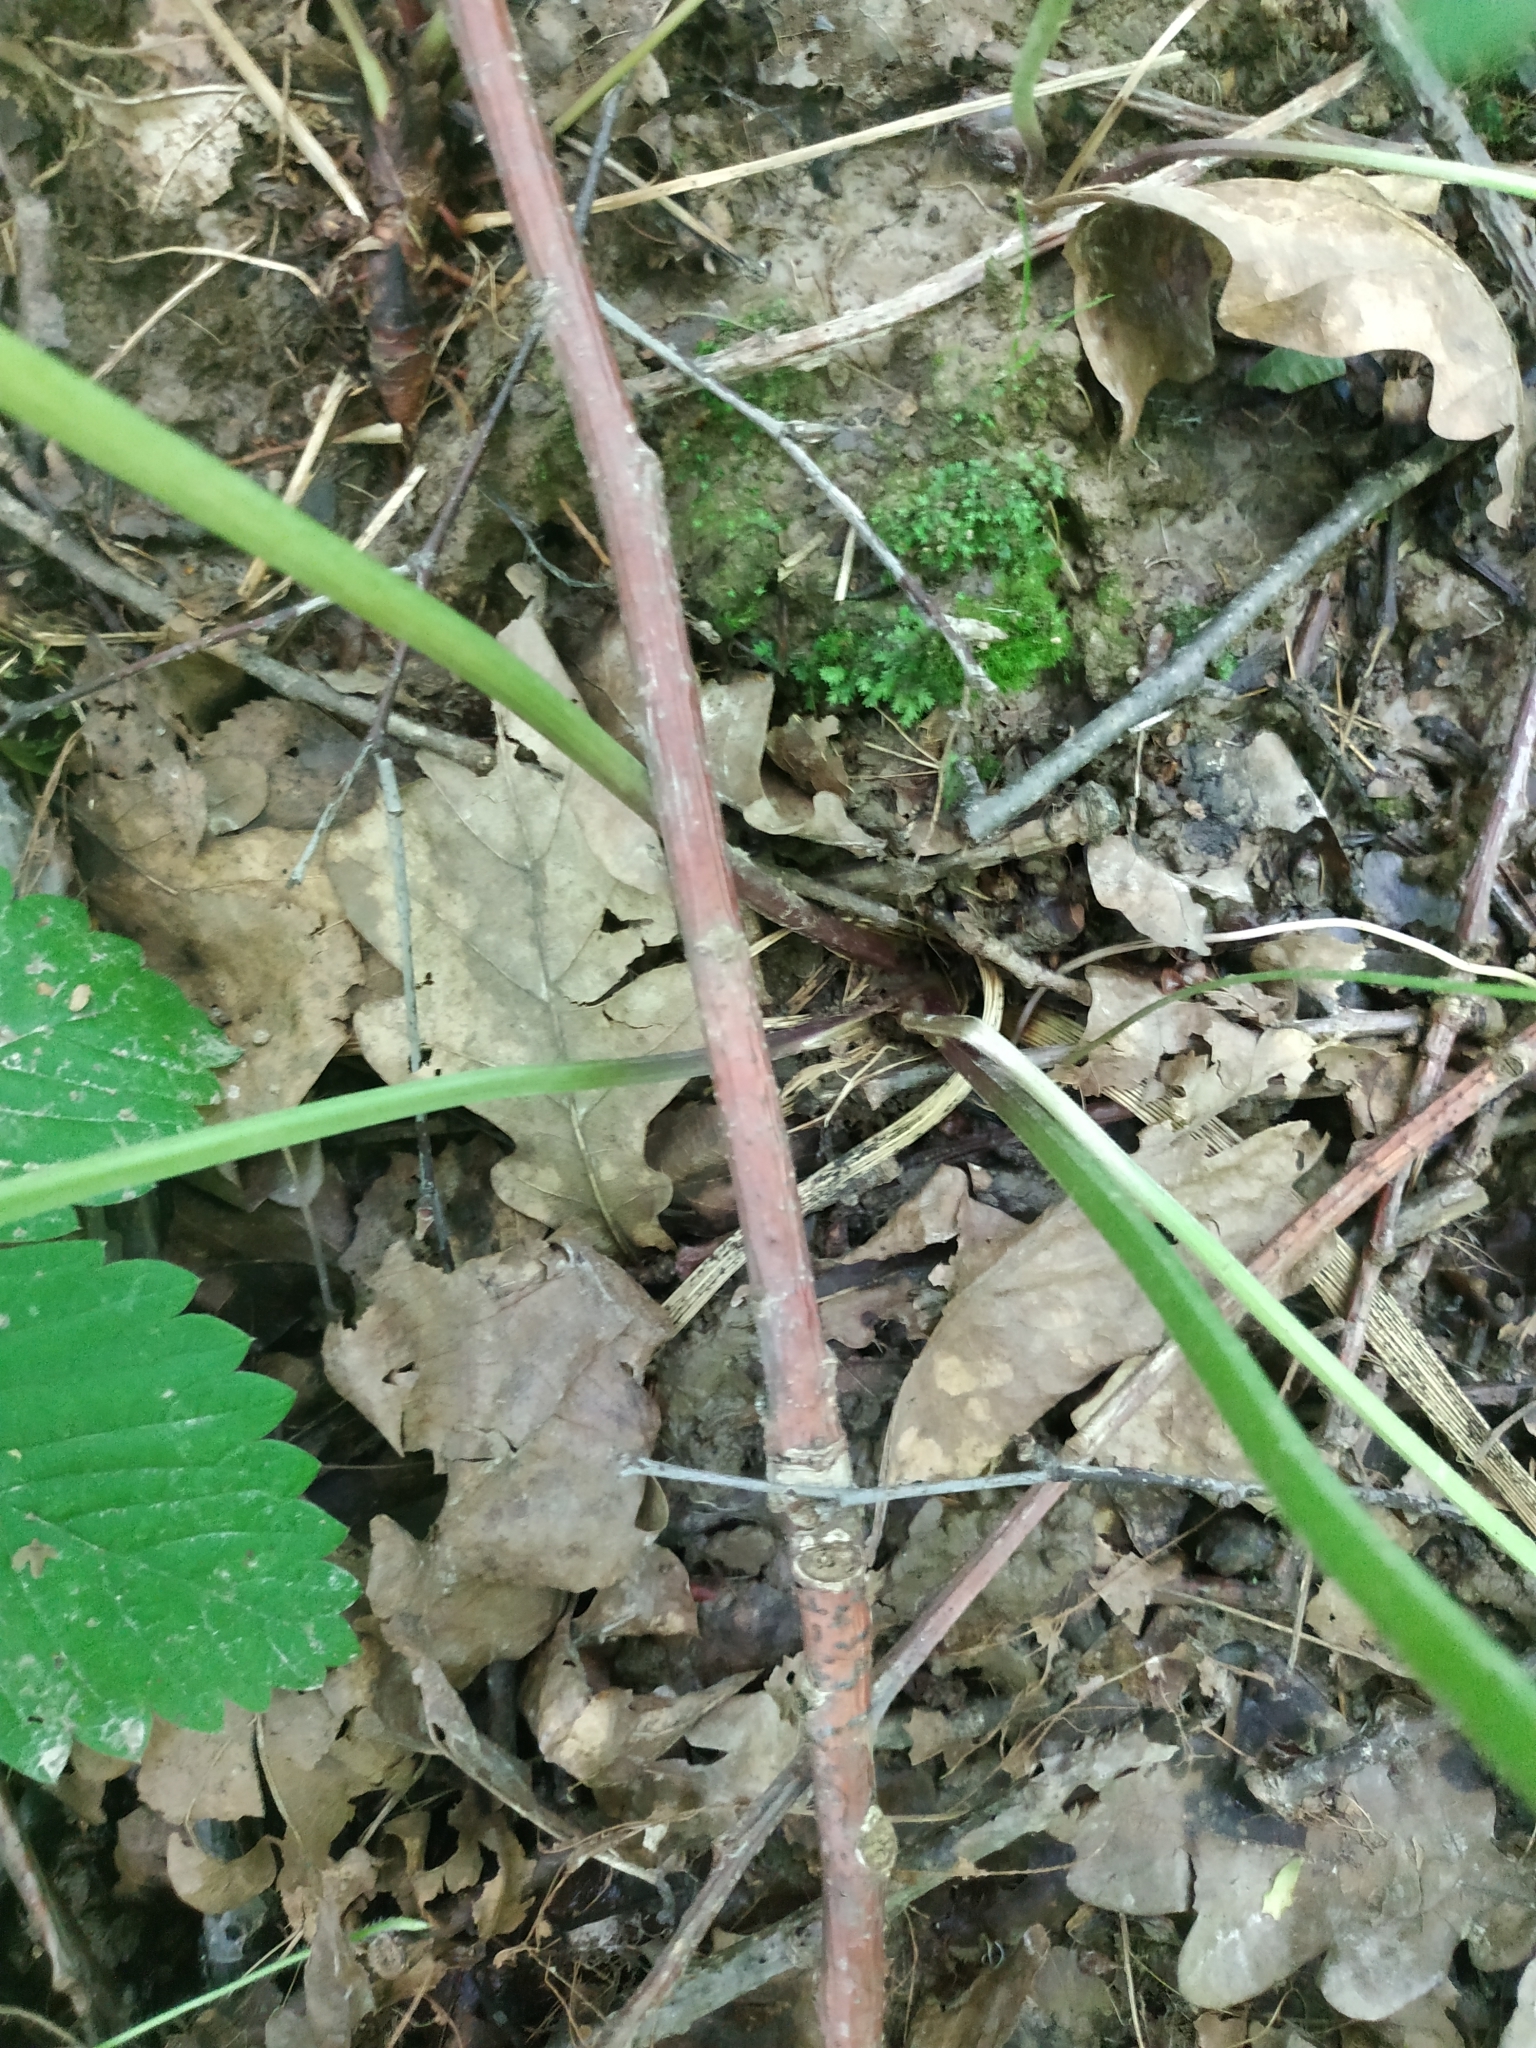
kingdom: Plantae
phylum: Tracheophyta
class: Magnoliopsida
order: Ranunculales
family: Ranunculaceae
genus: Ranunculus
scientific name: Ranunculus cassubicus
